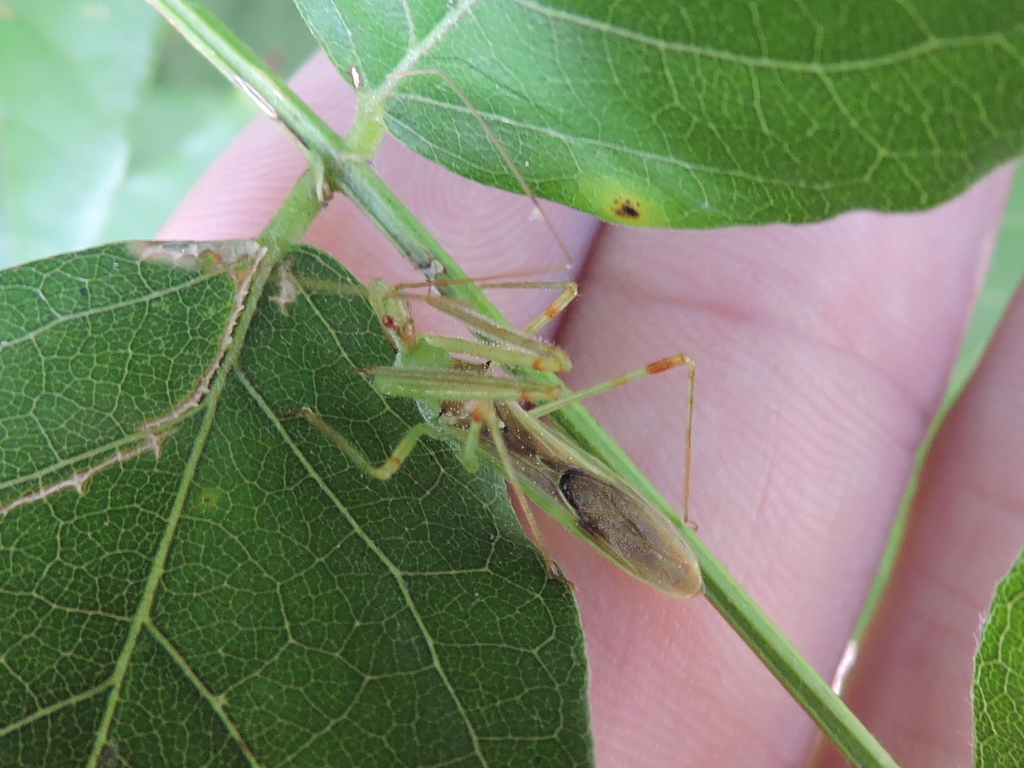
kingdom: Animalia
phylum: Arthropoda
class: Insecta
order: Hemiptera
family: Reduviidae
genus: Zelus
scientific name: Zelus luridus
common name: Pale green assassin bug
